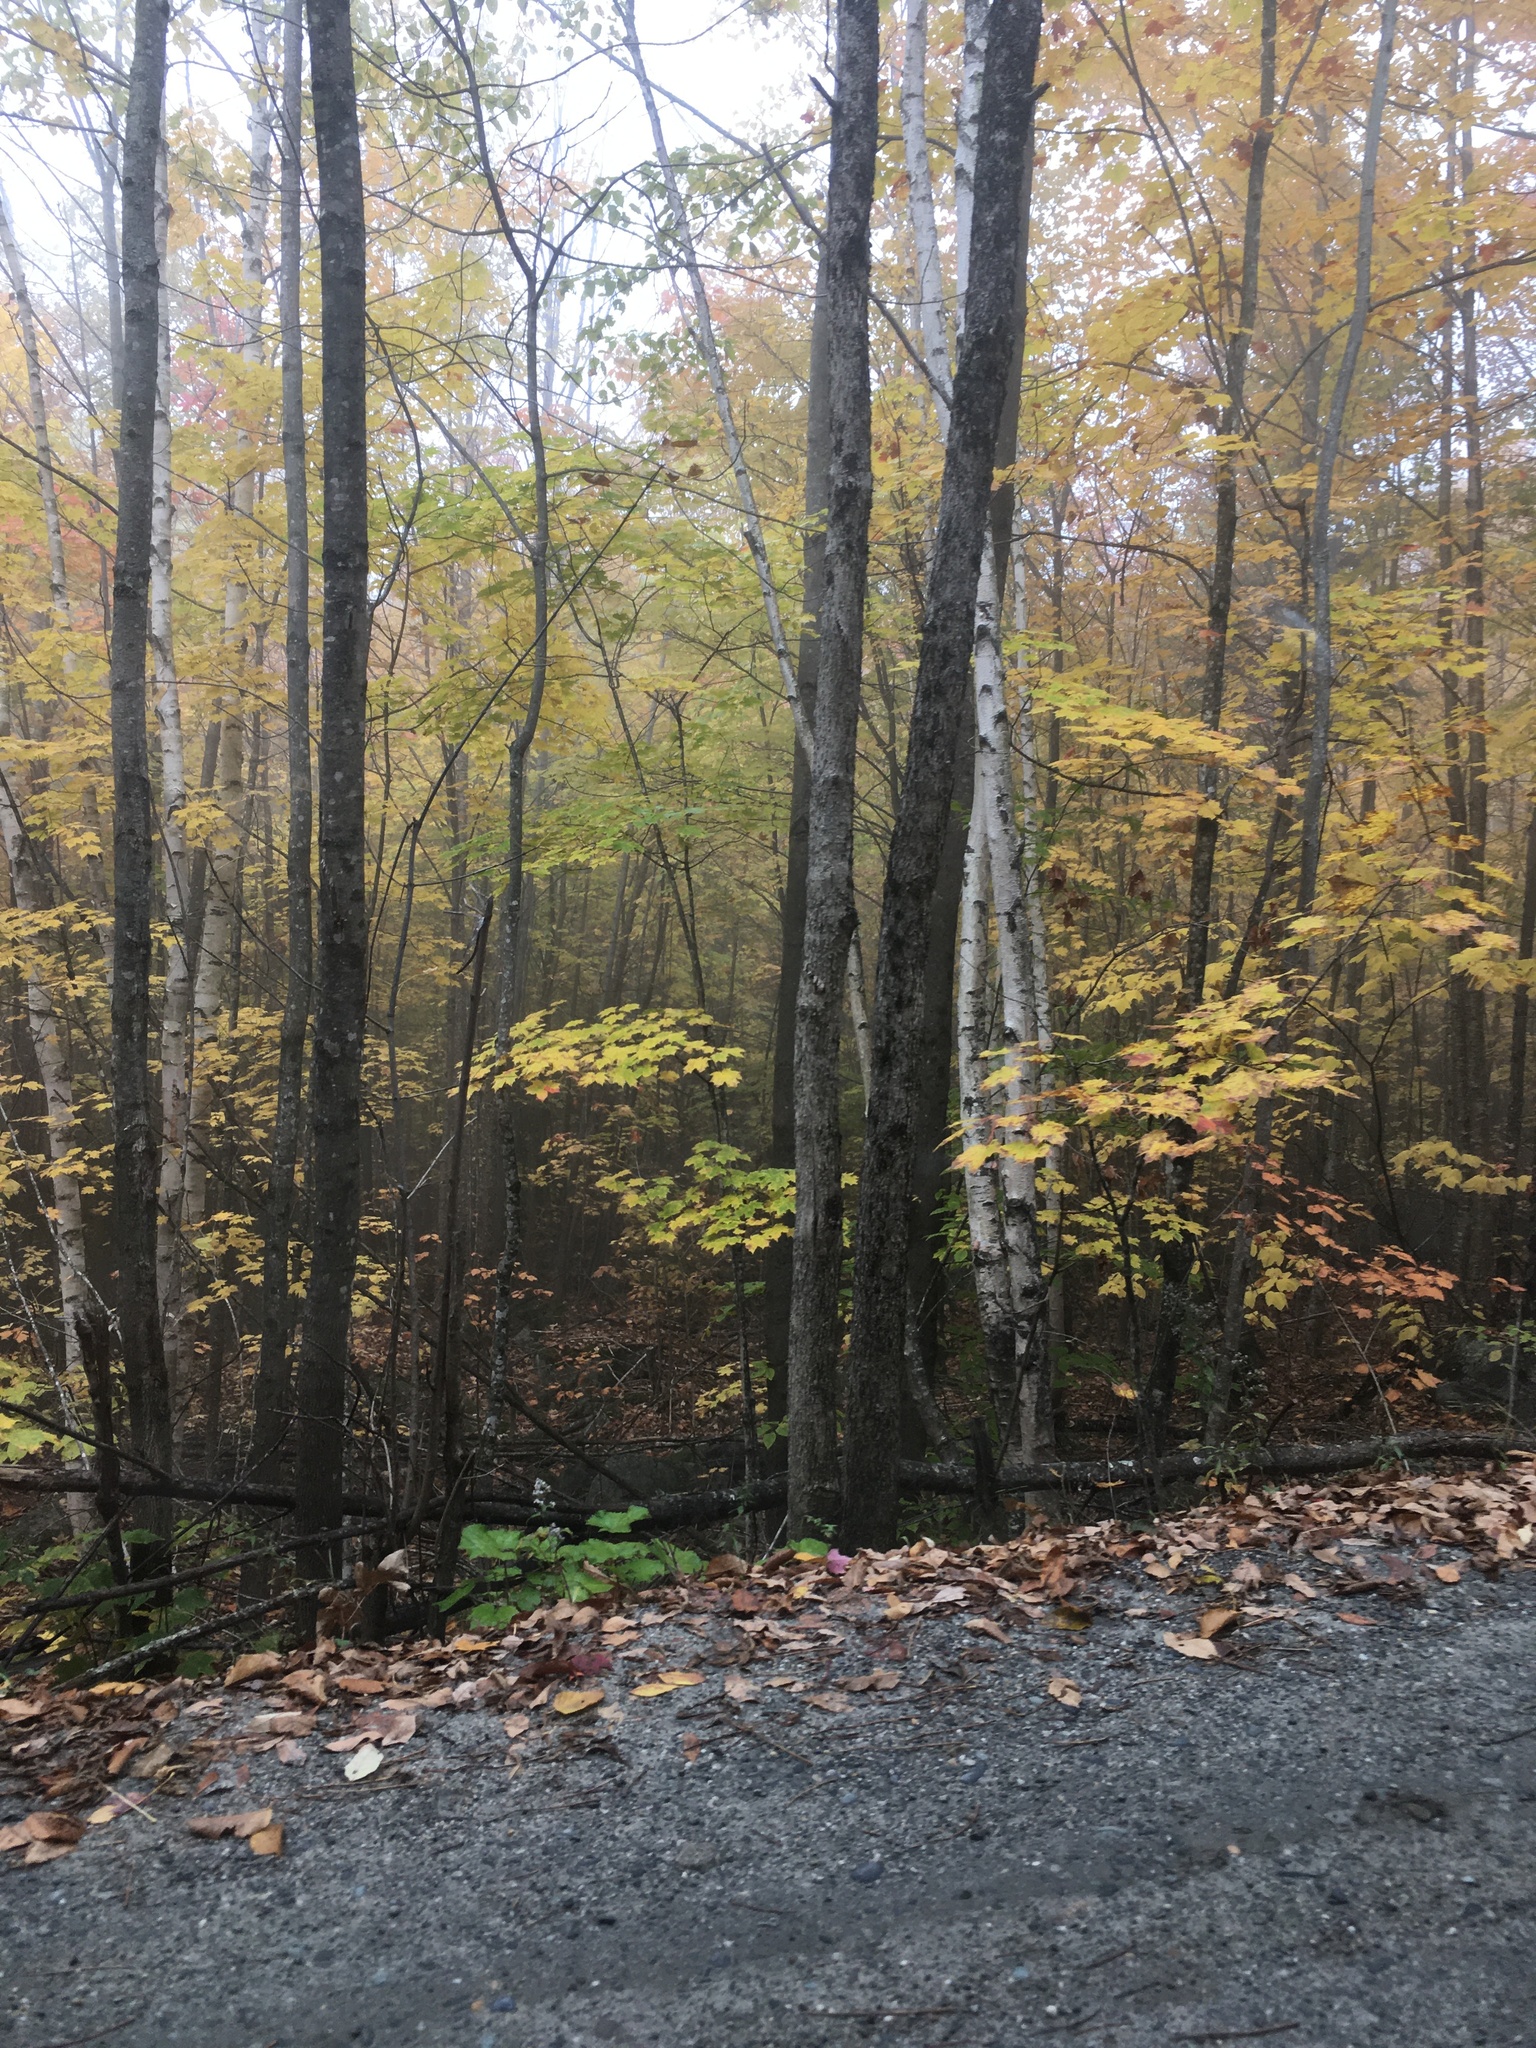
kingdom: Plantae
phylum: Tracheophyta
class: Magnoliopsida
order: Sapindales
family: Sapindaceae
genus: Acer
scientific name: Acer saccharum
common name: Sugar maple
